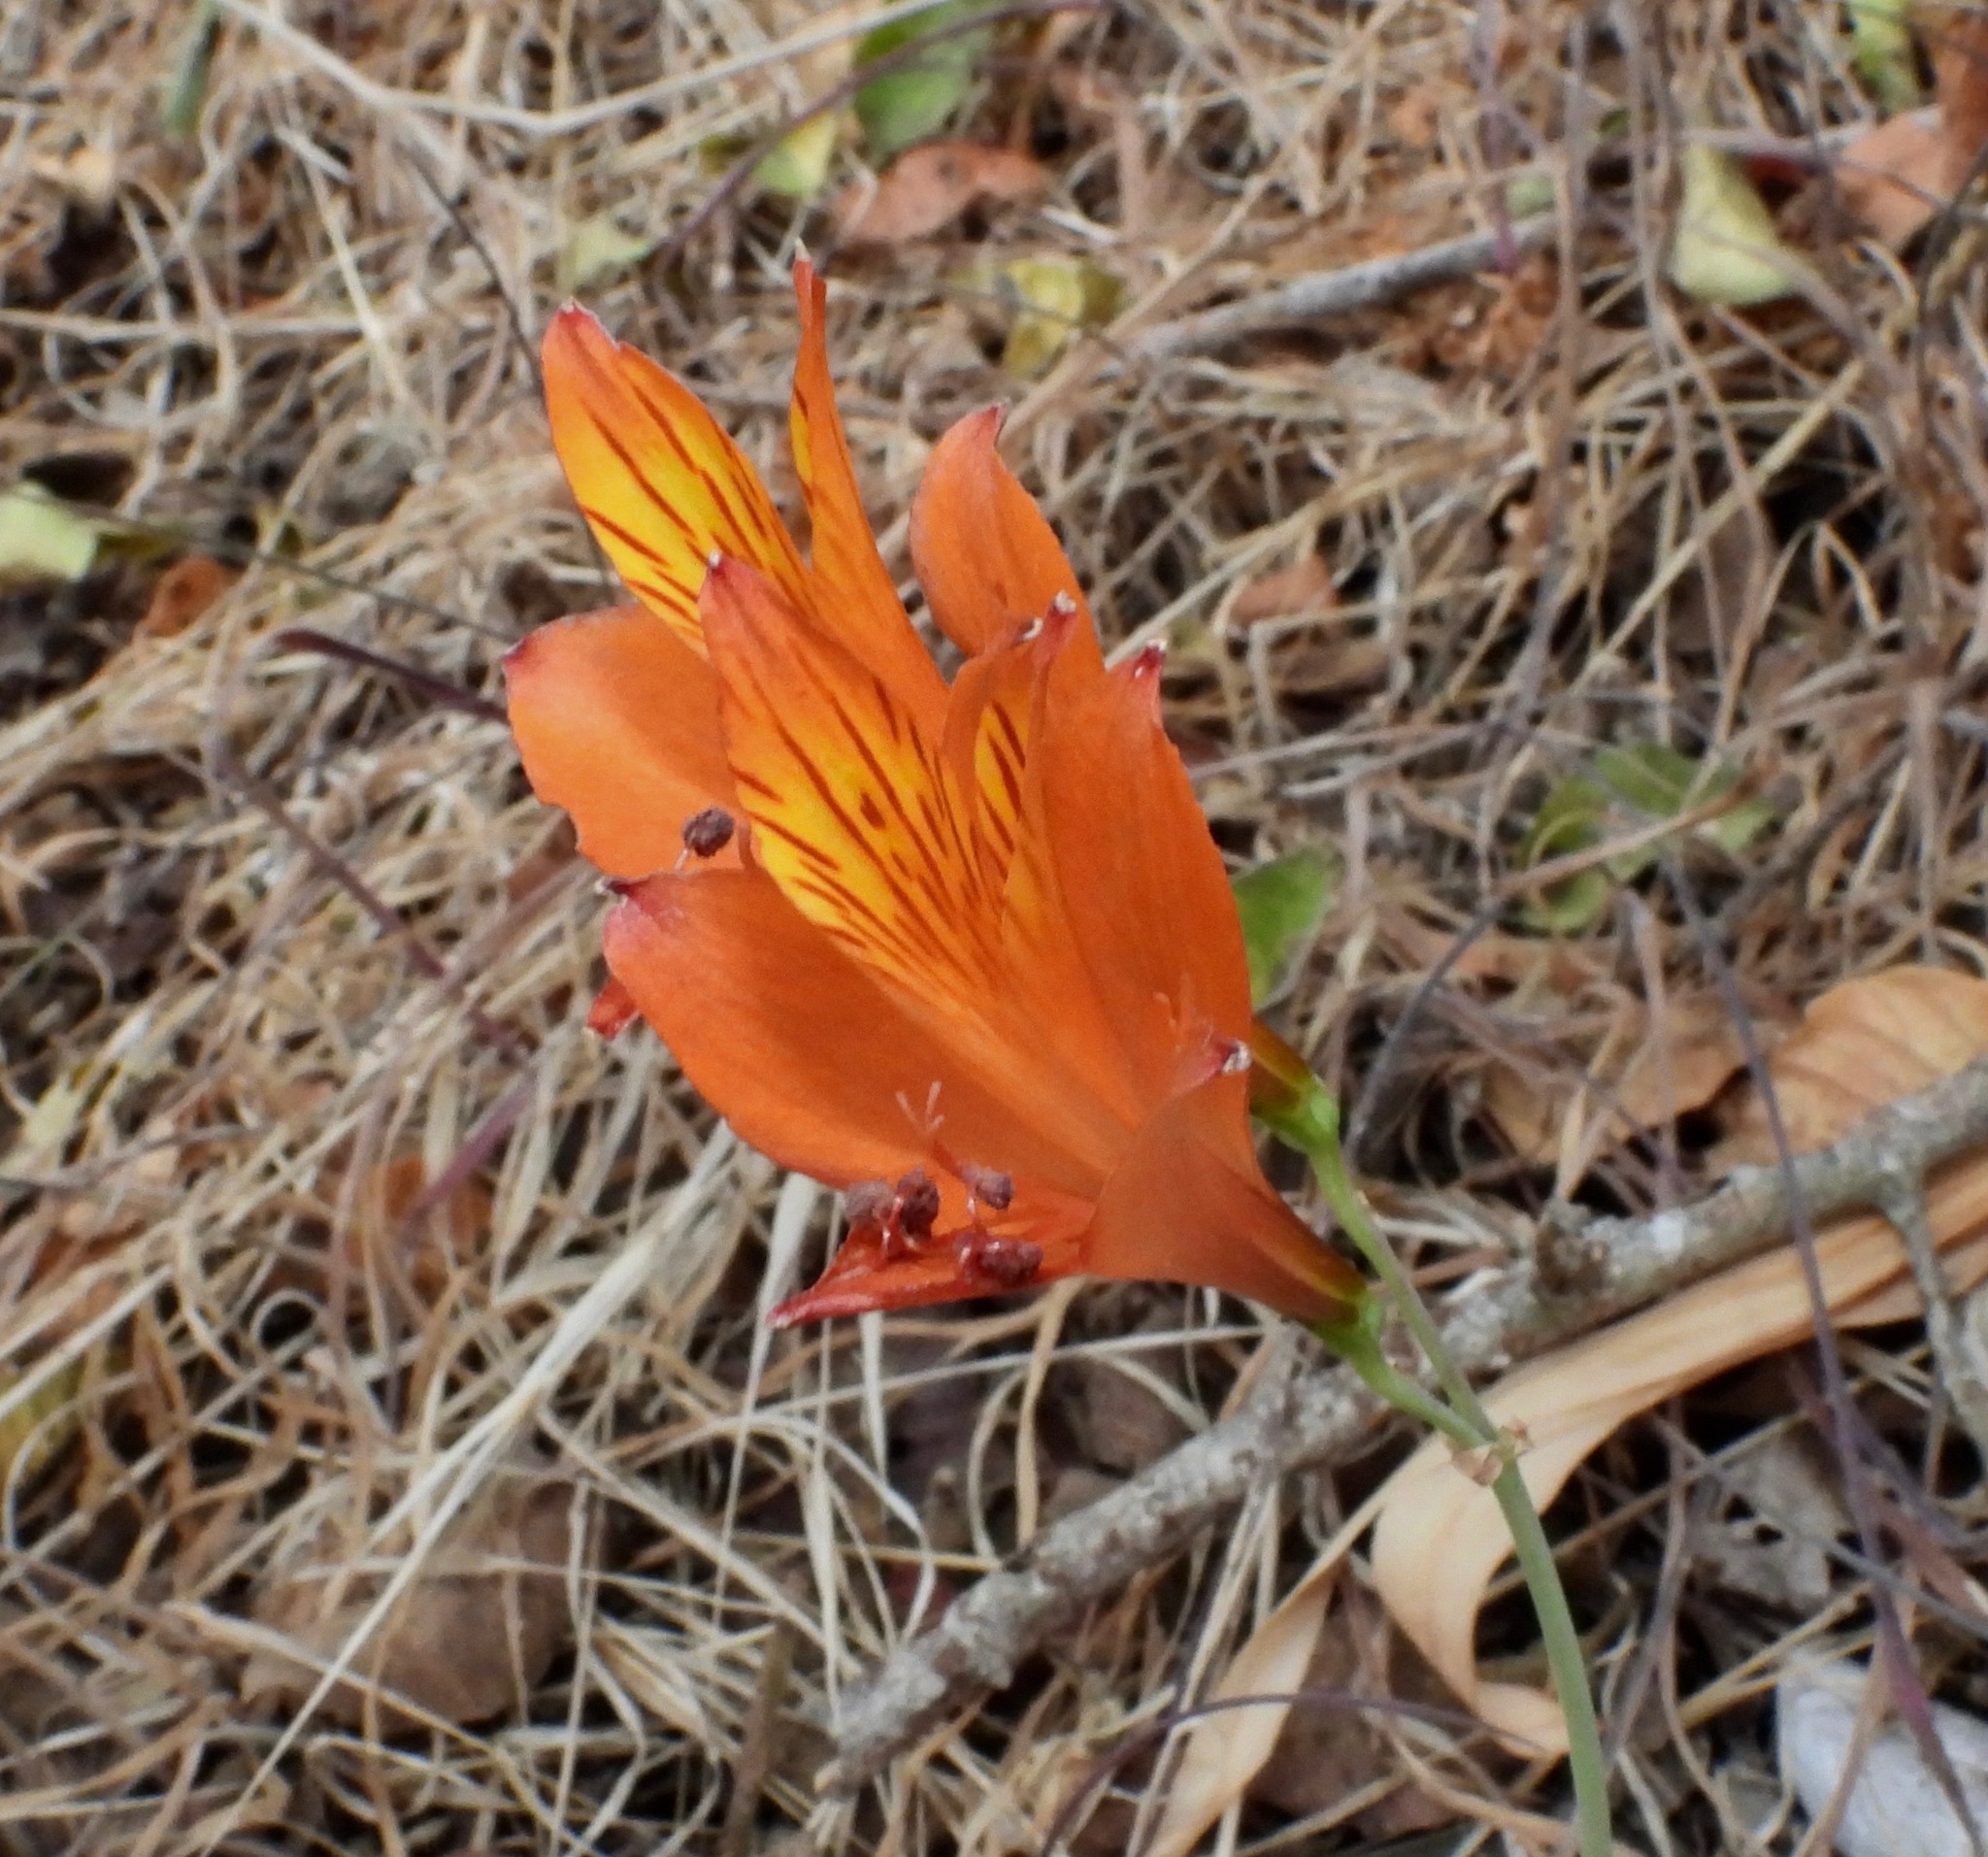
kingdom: Plantae
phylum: Tracheophyta
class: Liliopsida
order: Liliales
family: Alstroemeriaceae
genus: Alstroemeria
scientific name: Alstroemeria ligtu
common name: St. martin's-flower
